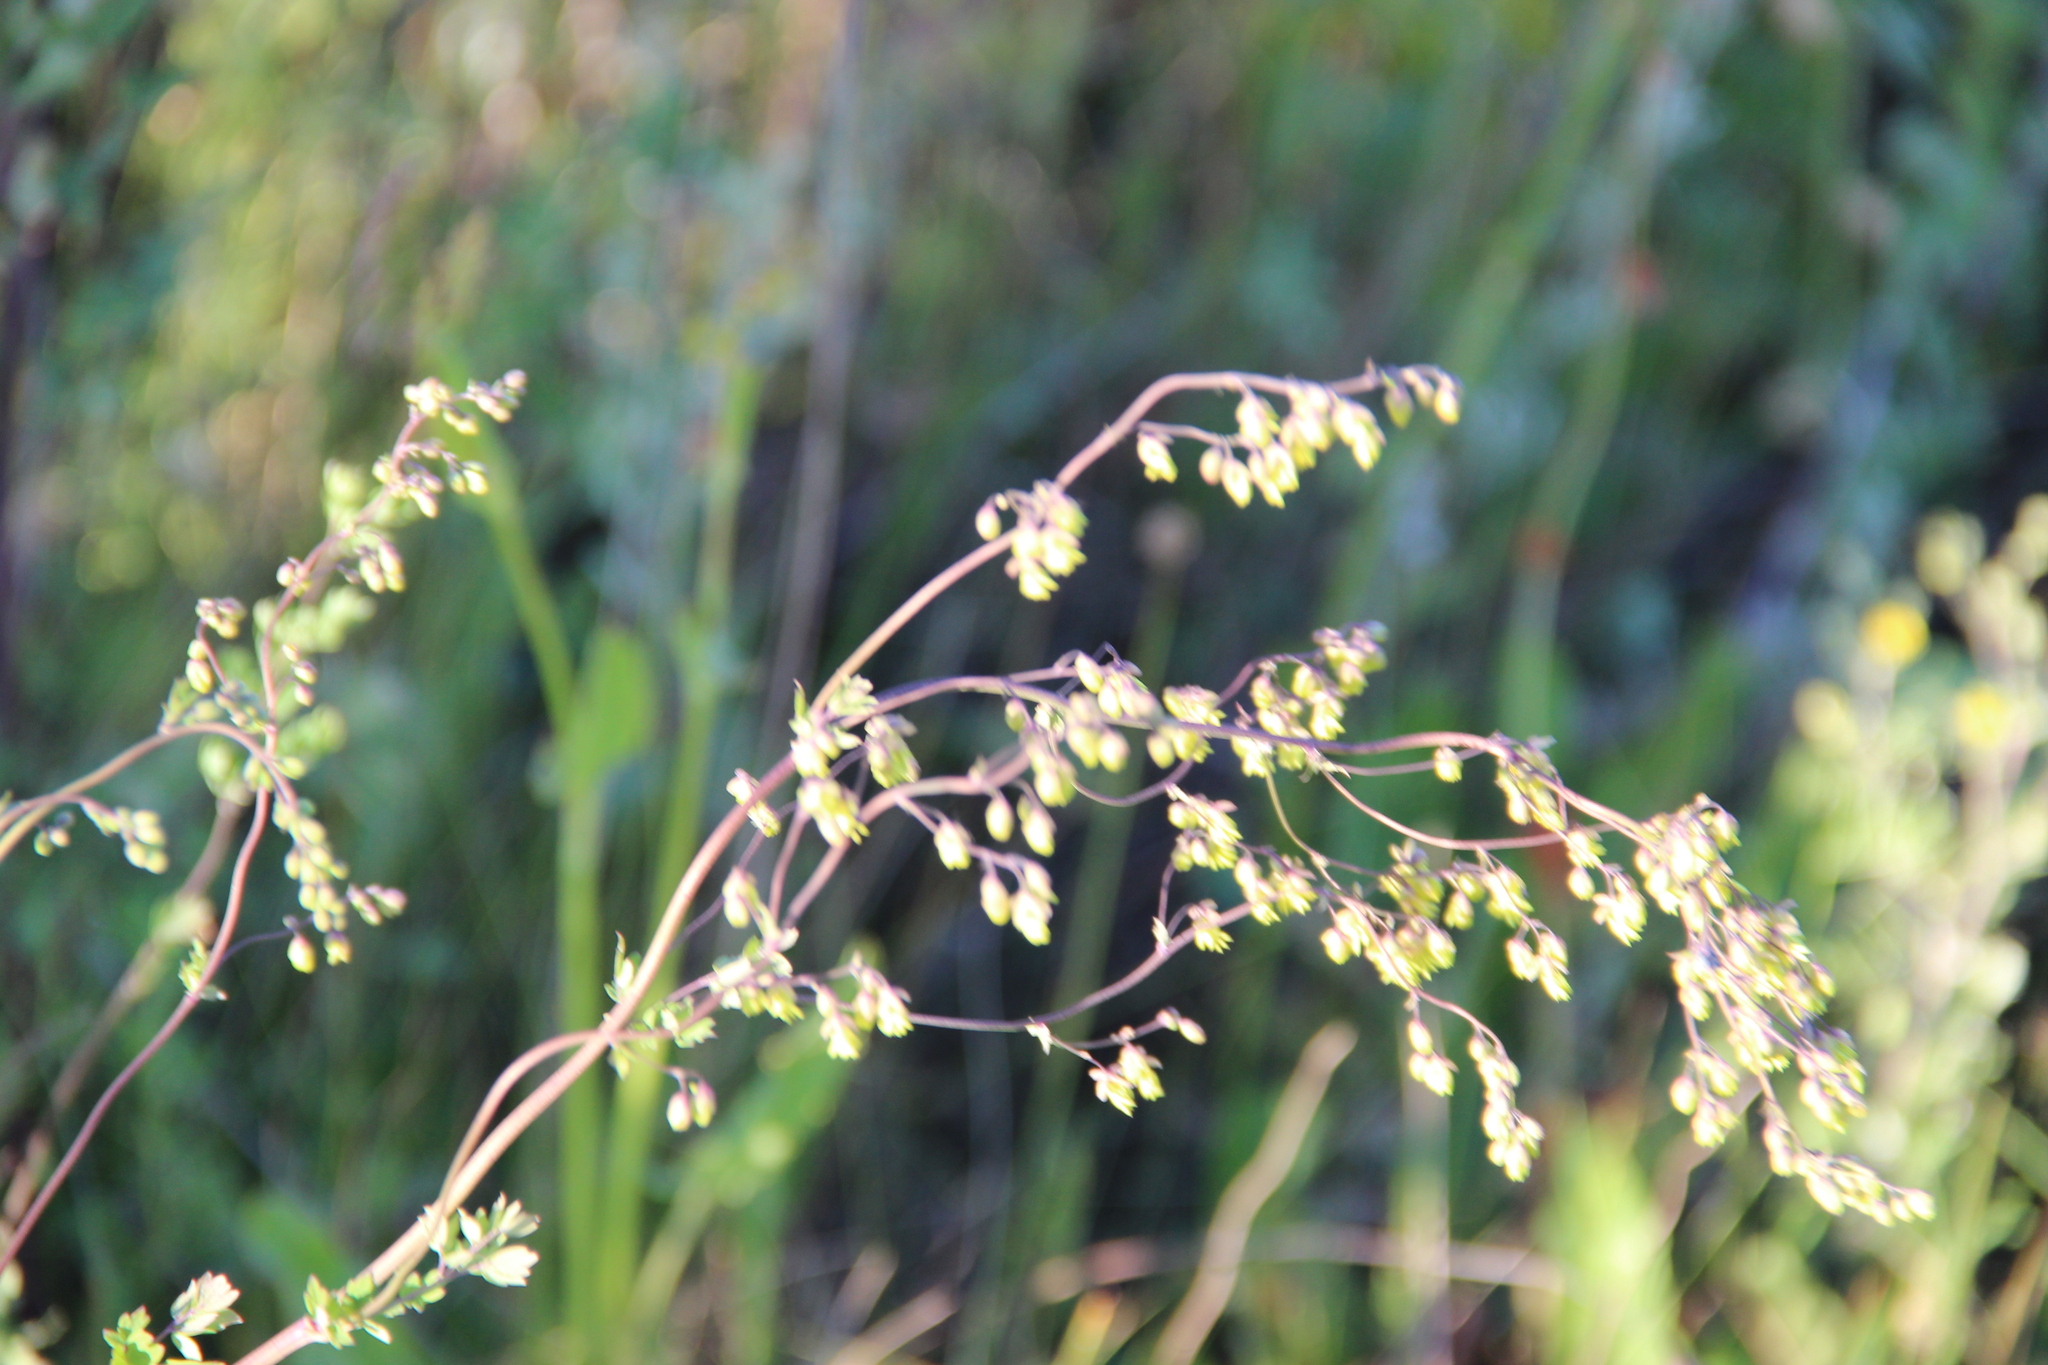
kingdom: Plantae
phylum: Tracheophyta
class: Magnoliopsida
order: Ranunculales
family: Ranunculaceae
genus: Thalictrum
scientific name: Thalictrum minus
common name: Lesser meadow-rue
